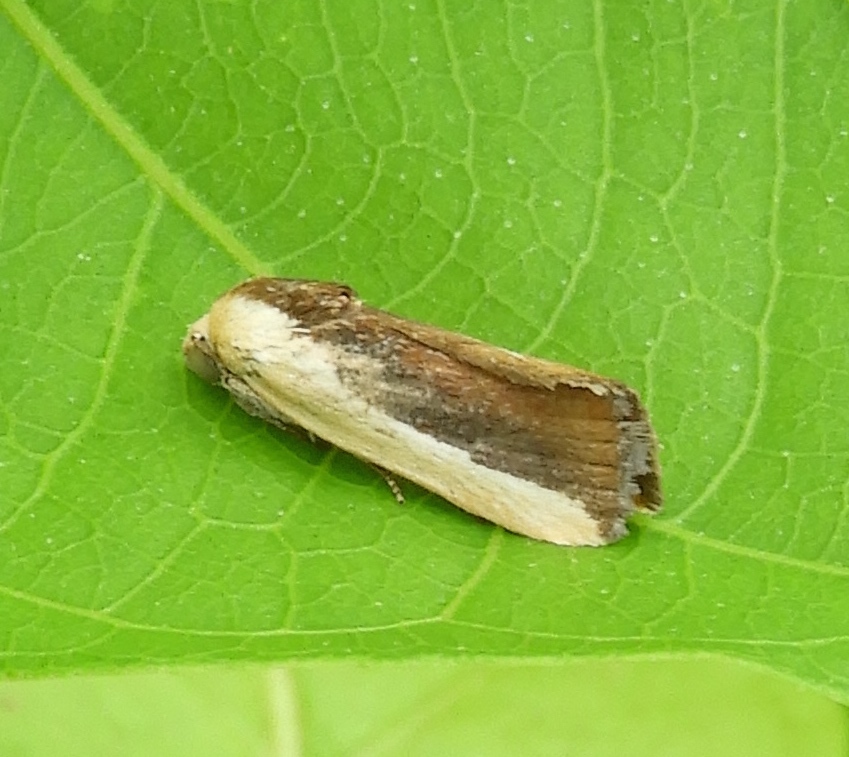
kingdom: Animalia
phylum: Arthropoda
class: Insecta
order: Lepidoptera
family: Noctuidae
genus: Acontia
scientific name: Acontia exigua
